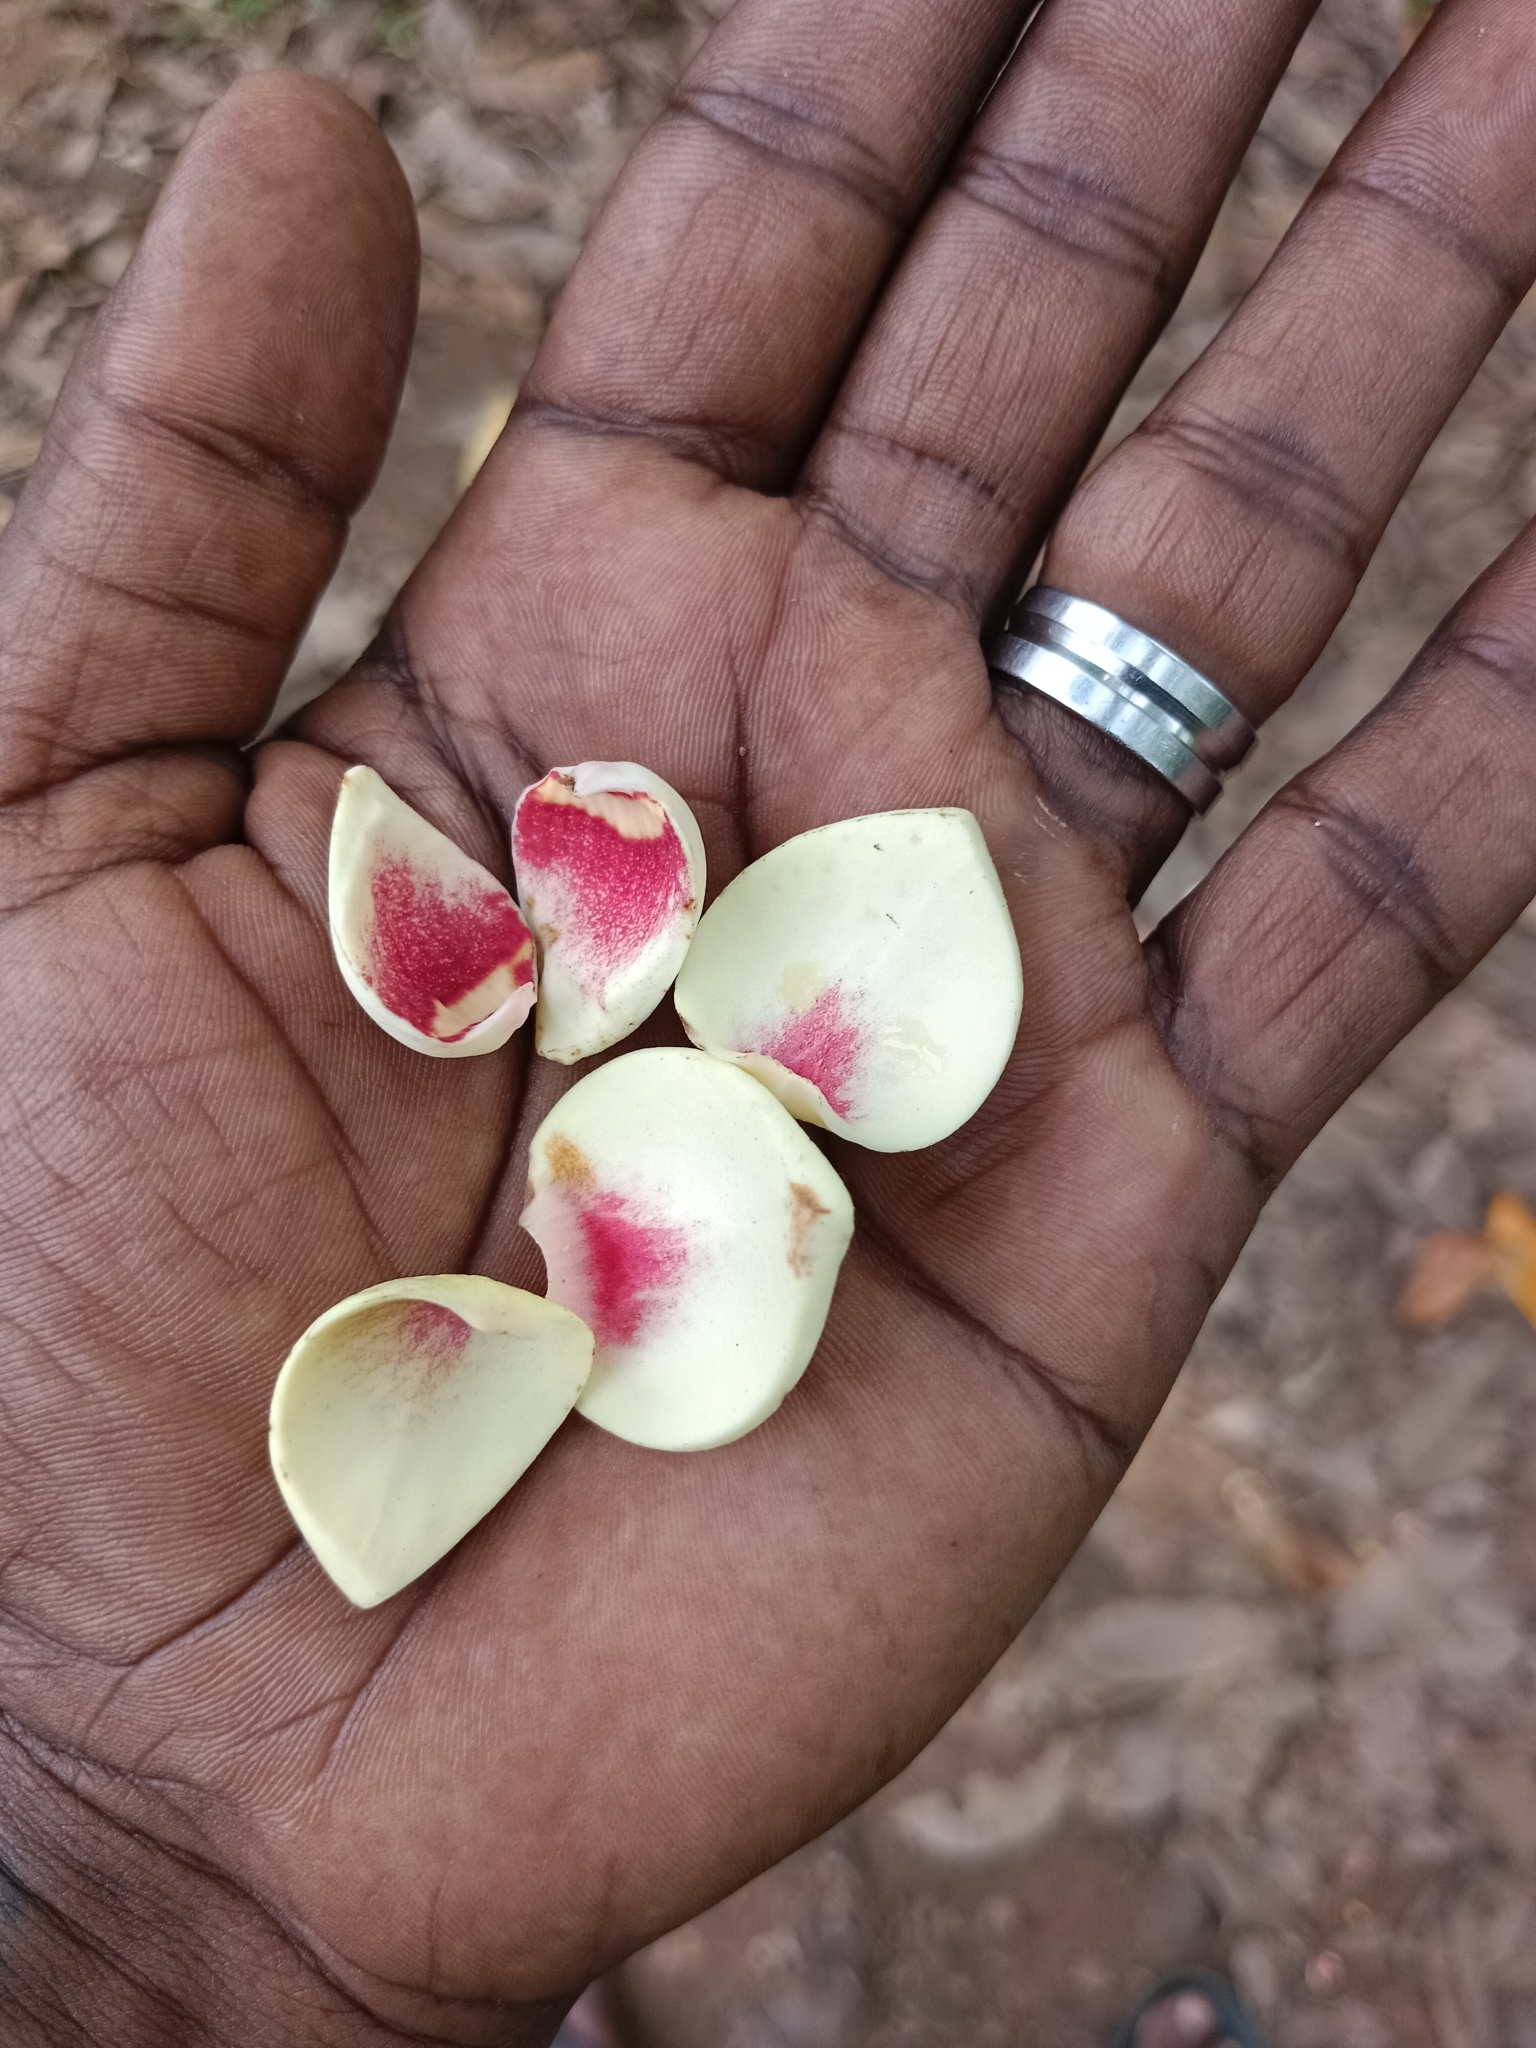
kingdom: Plantae
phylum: Tracheophyta
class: Magnoliopsida
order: Magnoliales
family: Annonaceae
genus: Annona
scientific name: Annona glabra
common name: Monkey apple
